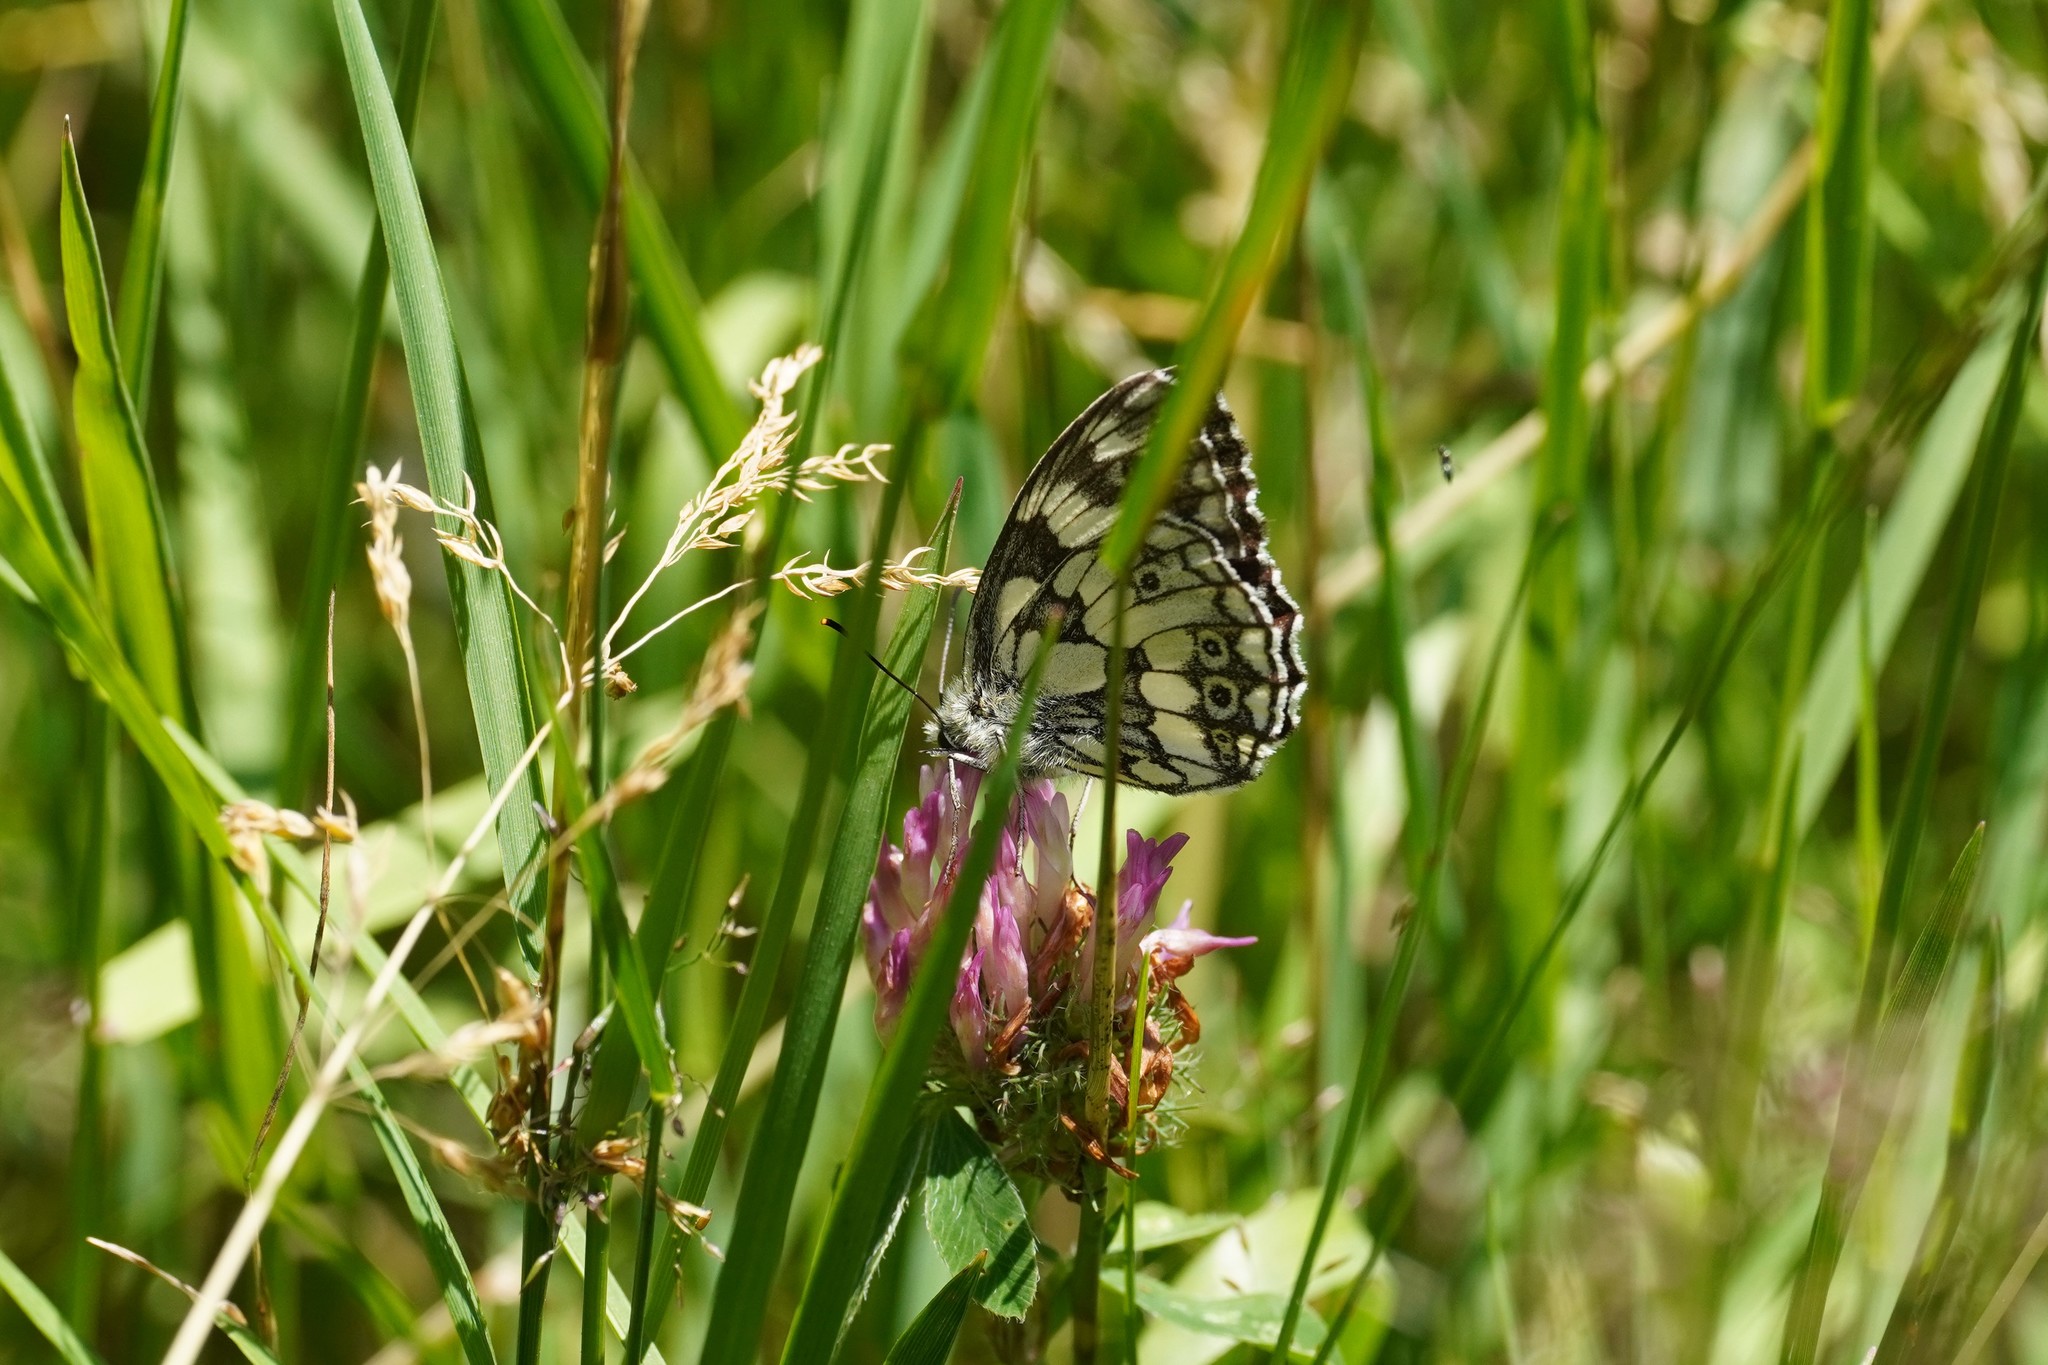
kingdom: Animalia
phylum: Arthropoda
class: Insecta
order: Lepidoptera
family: Nymphalidae
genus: Melanargia
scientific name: Melanargia galathea
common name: Marbled white
